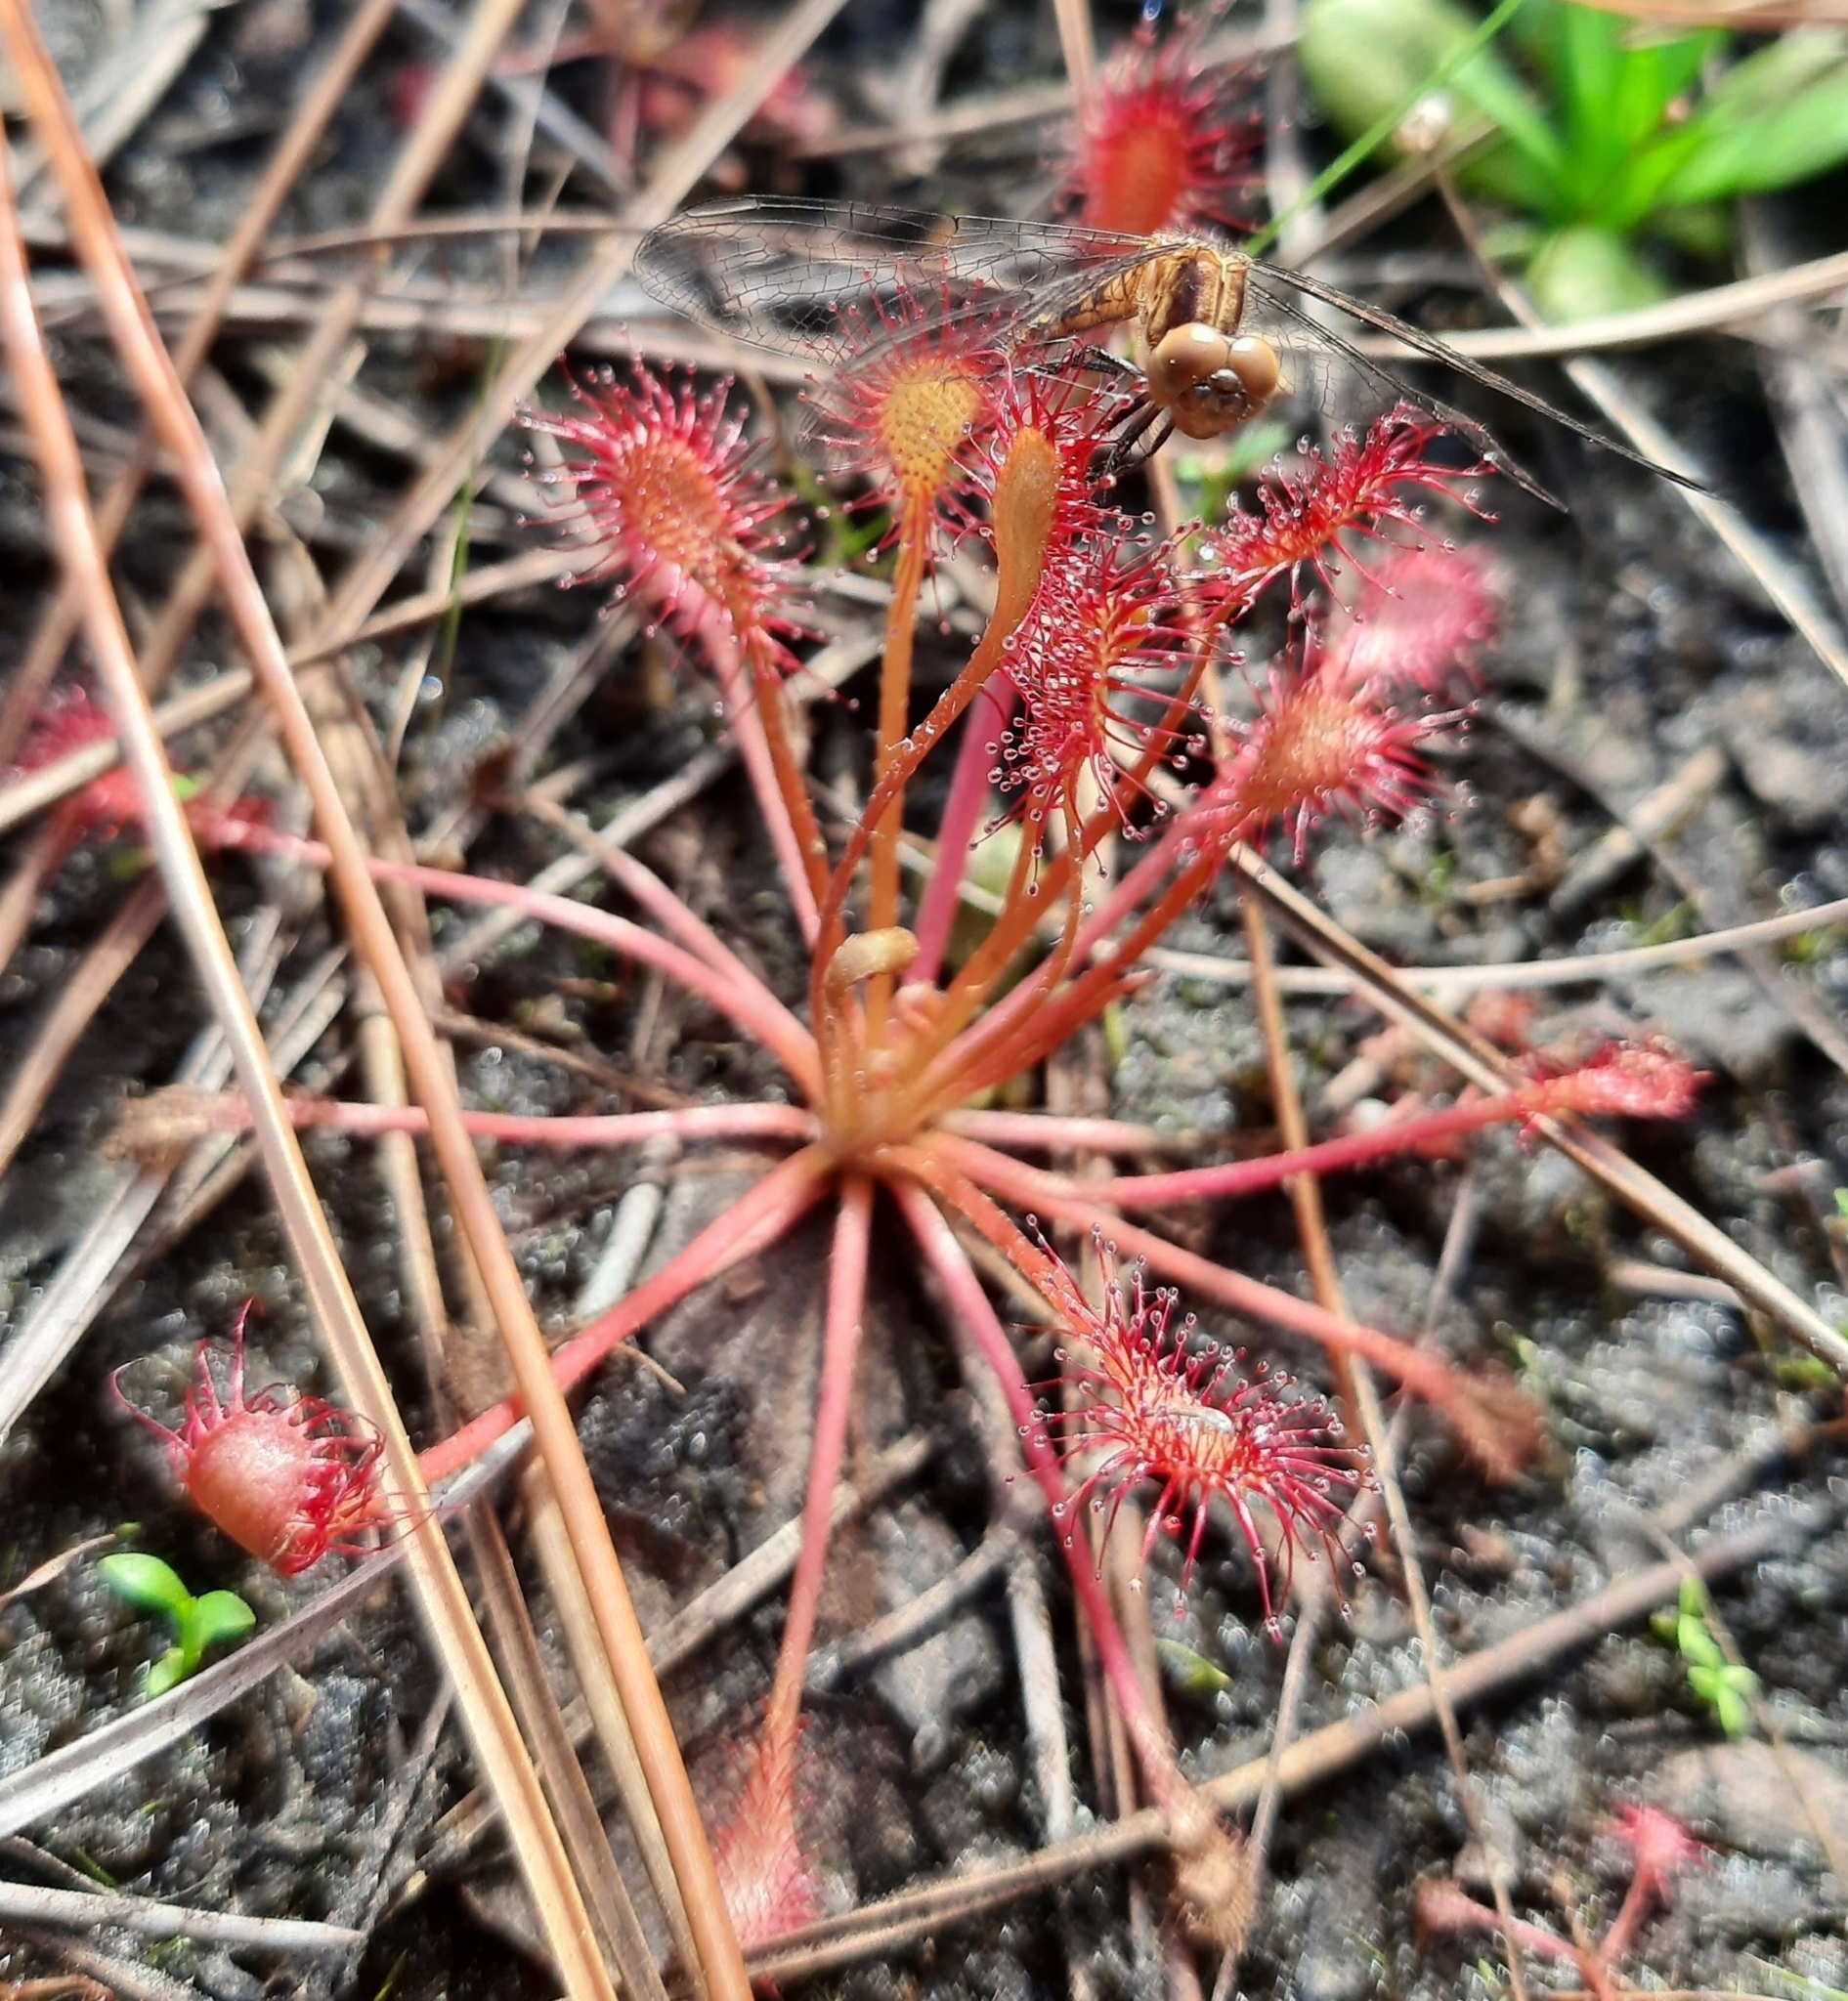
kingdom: Plantae
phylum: Tracheophyta
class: Magnoliopsida
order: Caryophyllales
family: Droseraceae
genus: Drosera
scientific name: Drosera capillaris
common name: Pink sundew
